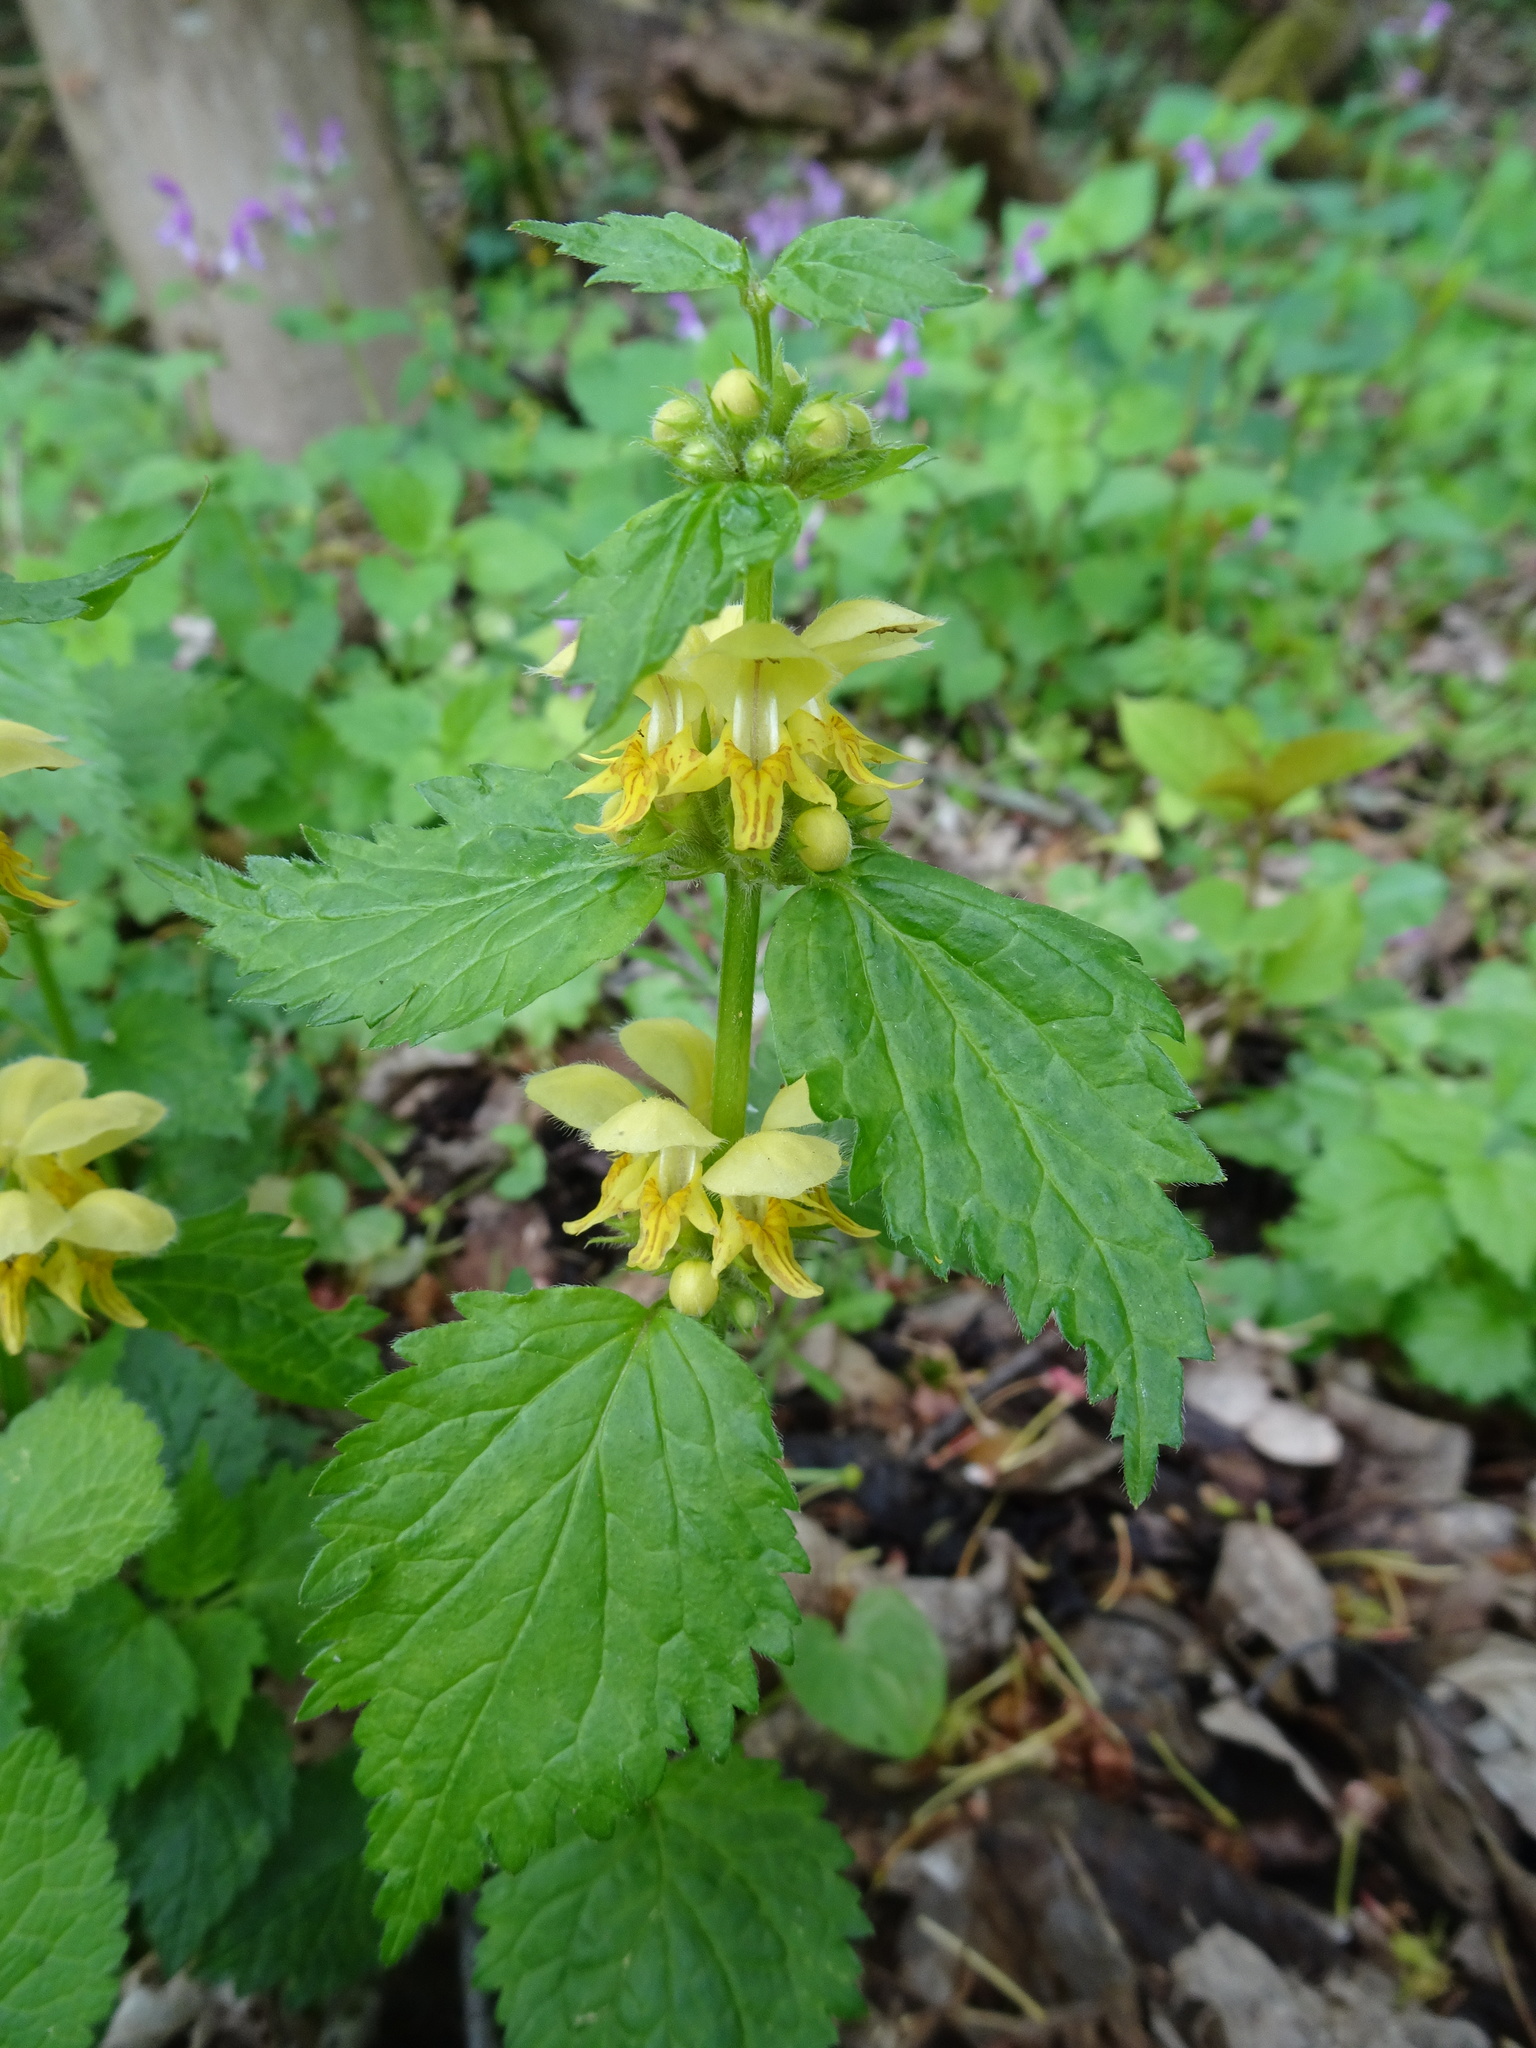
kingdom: Plantae
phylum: Tracheophyta
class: Magnoliopsida
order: Lamiales
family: Lamiaceae
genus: Lamium
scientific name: Lamium galeobdolon
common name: Yellow archangel
